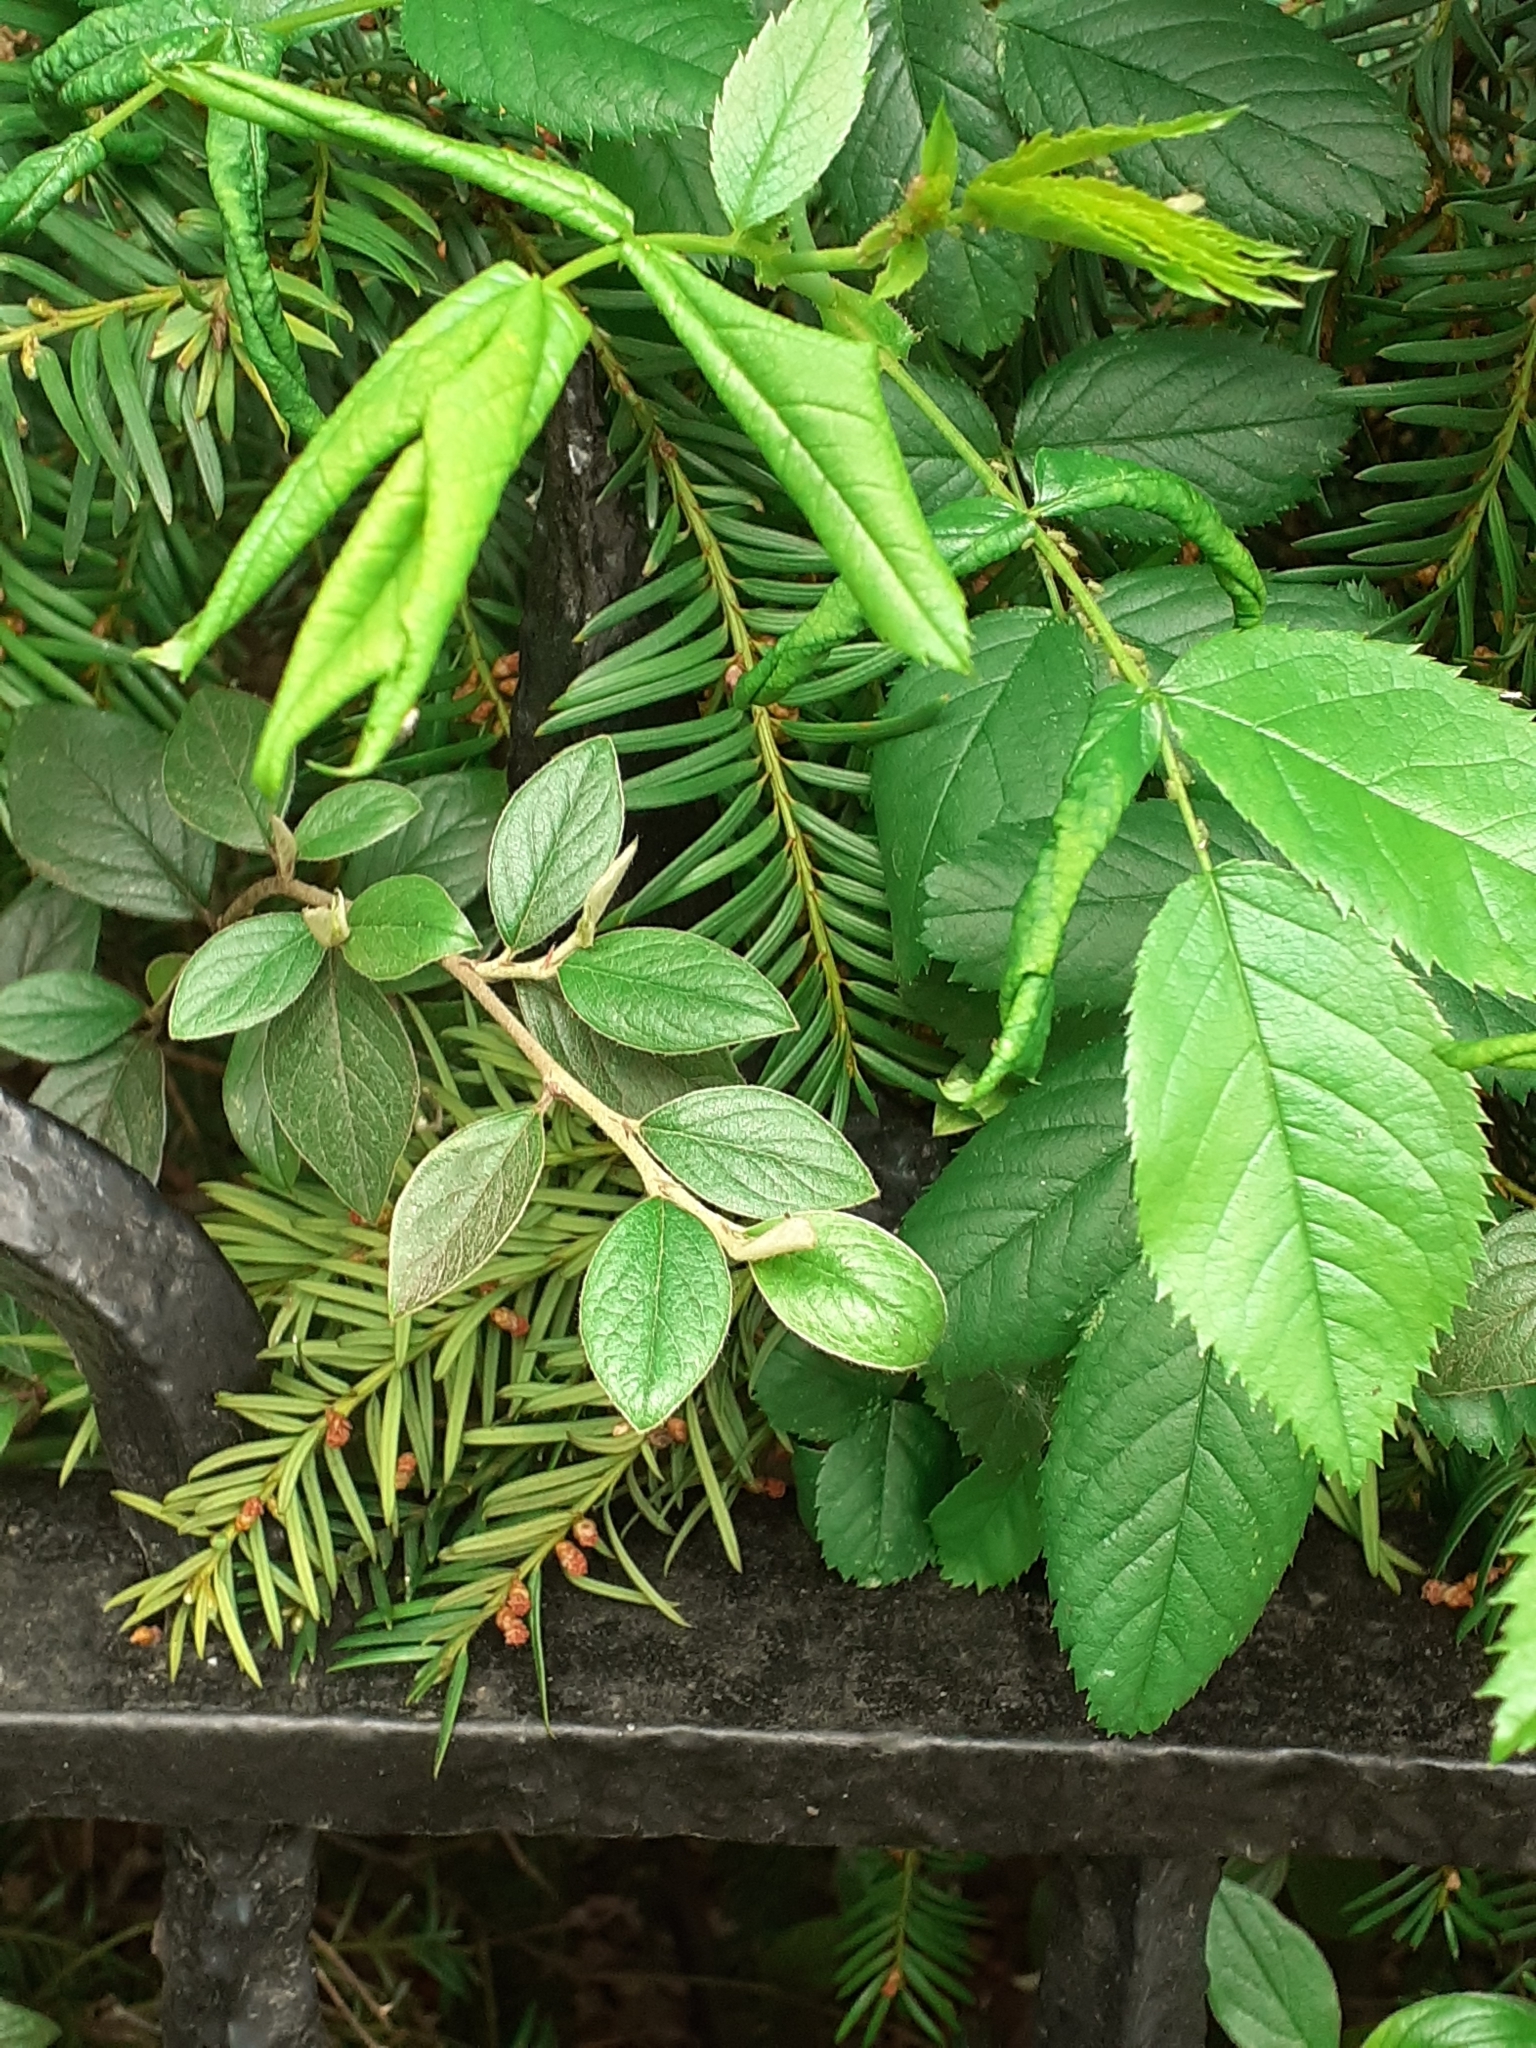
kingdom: Animalia
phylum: Arthropoda
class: Insecta
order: Hymenoptera
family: Tenthredinidae
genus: Blennocampa
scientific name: Blennocampa phyllocolpa
